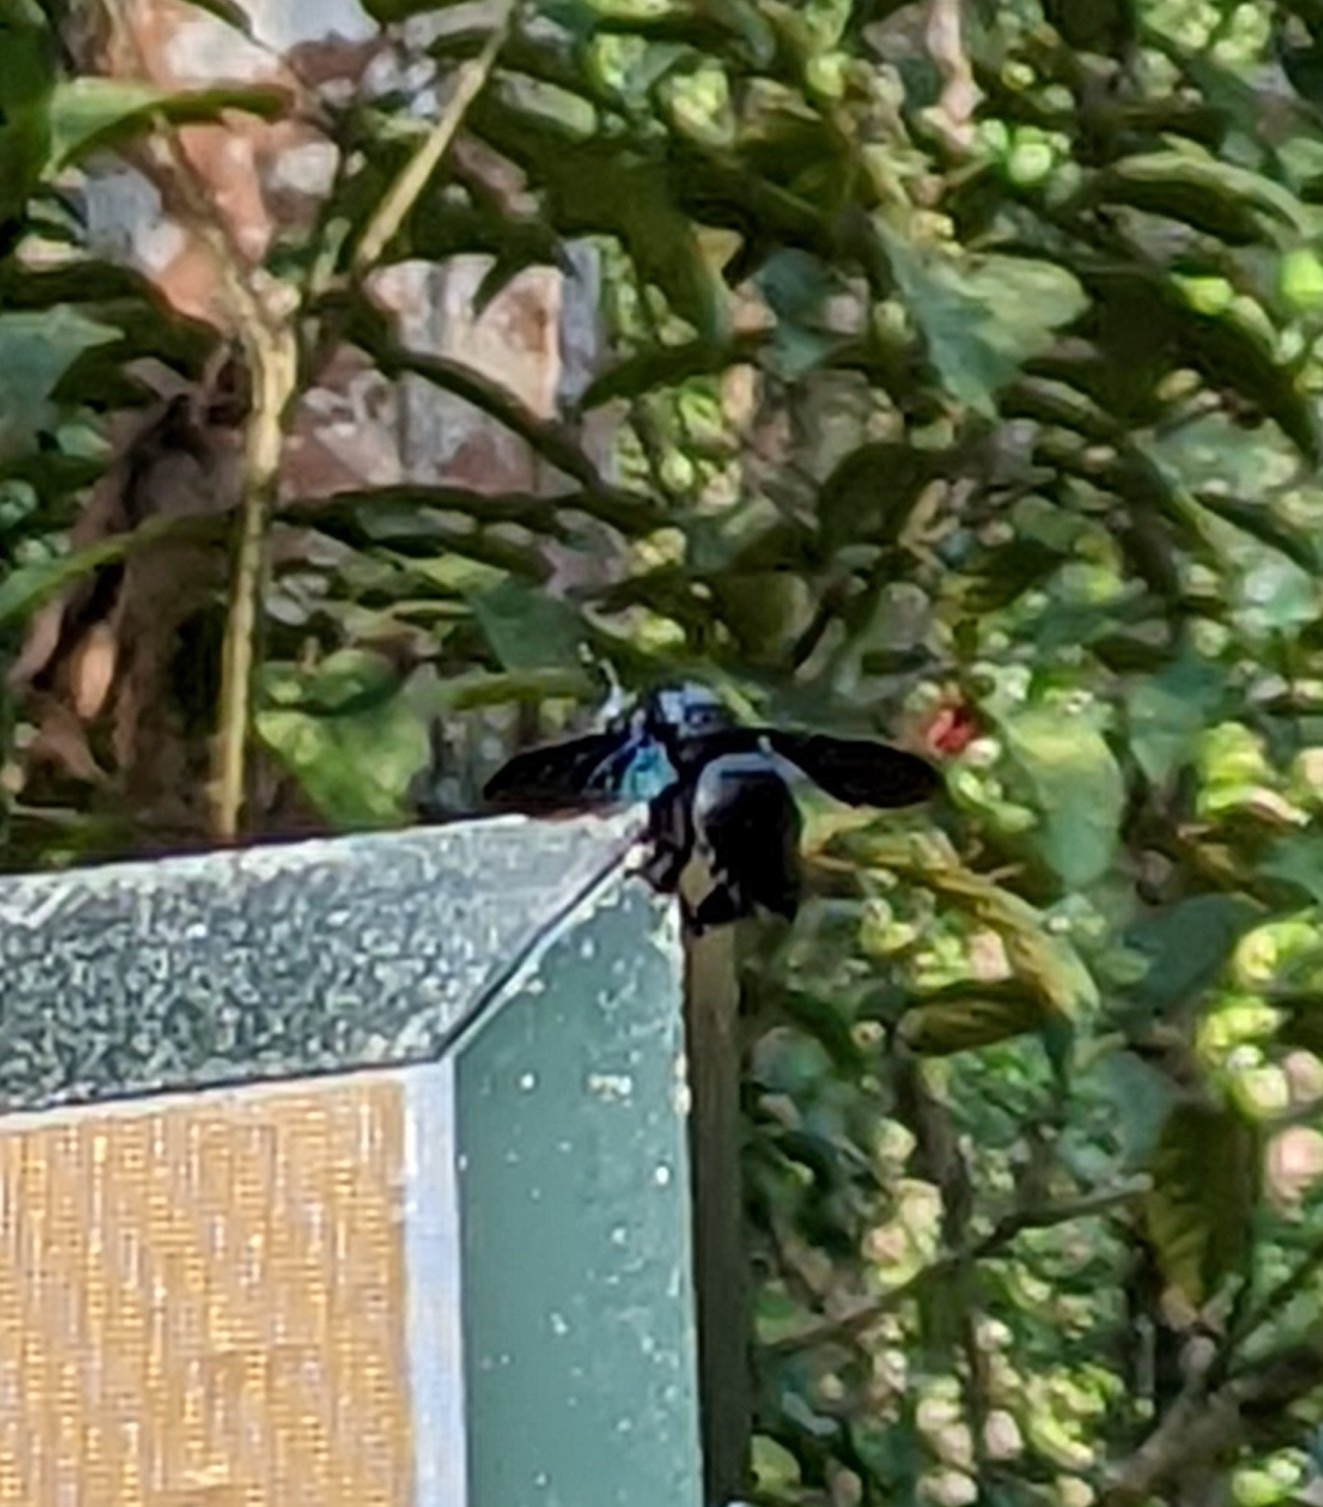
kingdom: Animalia
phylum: Arthropoda
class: Insecta
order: Hymenoptera
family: Apidae
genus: Xylocopa
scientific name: Xylocopa latipes
